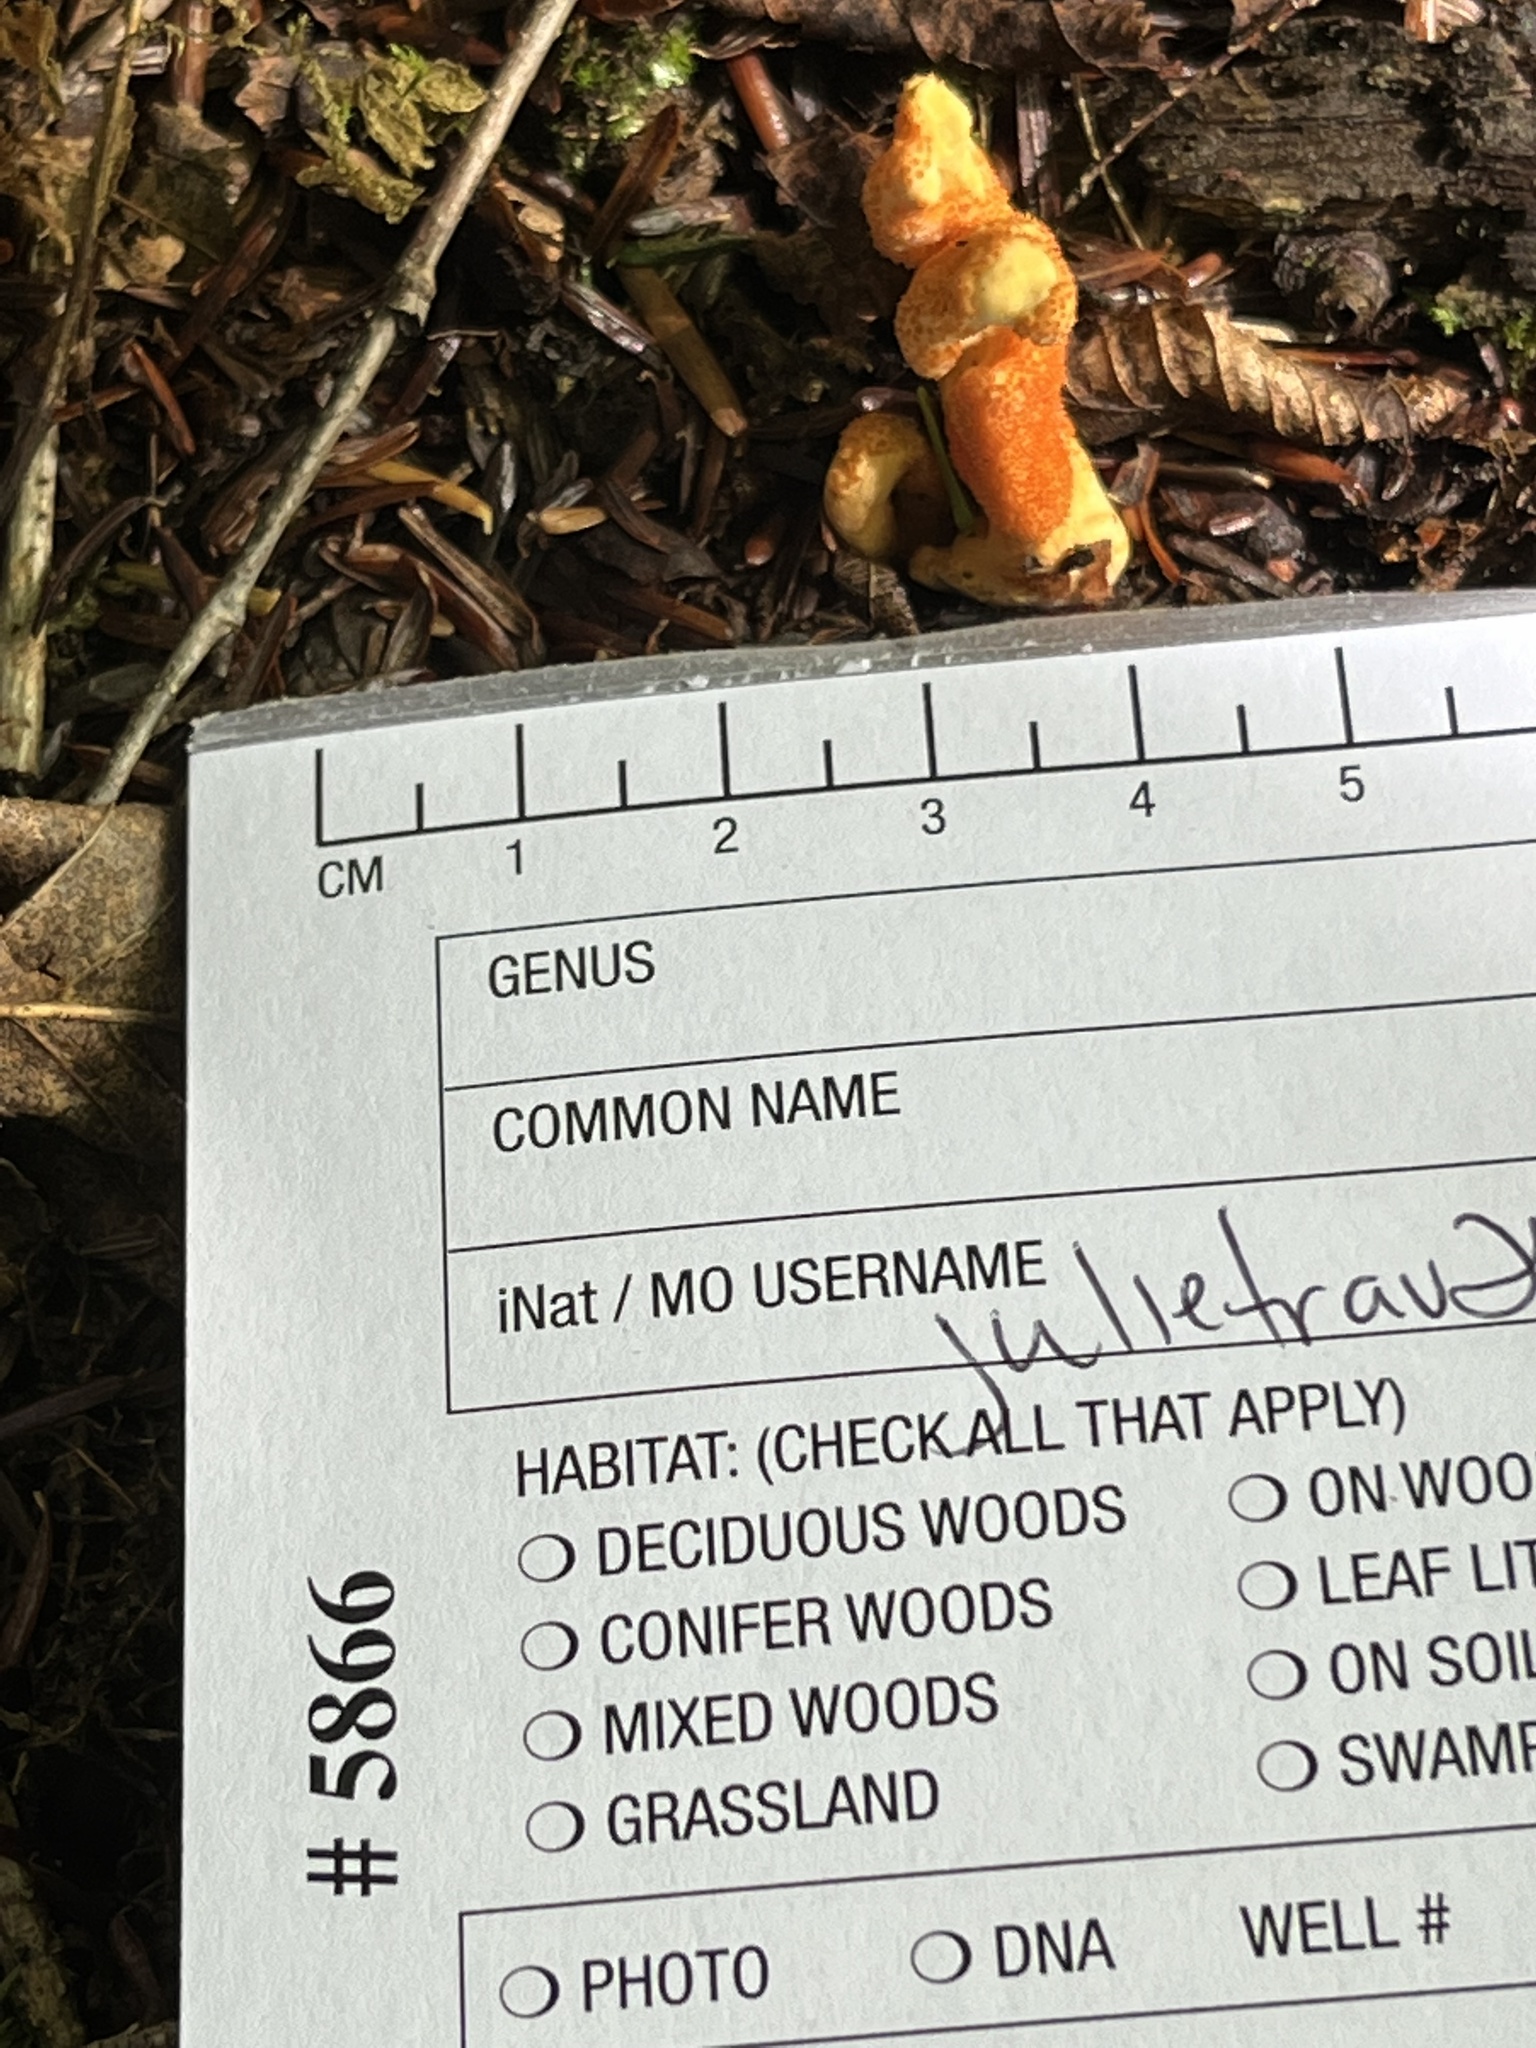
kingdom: Fungi
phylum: Ascomycota
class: Sordariomycetes
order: Hypocreales
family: Cordycipitaceae
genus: Cordyceps
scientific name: Cordyceps militaris
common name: Scarlet caterpillar fungus
